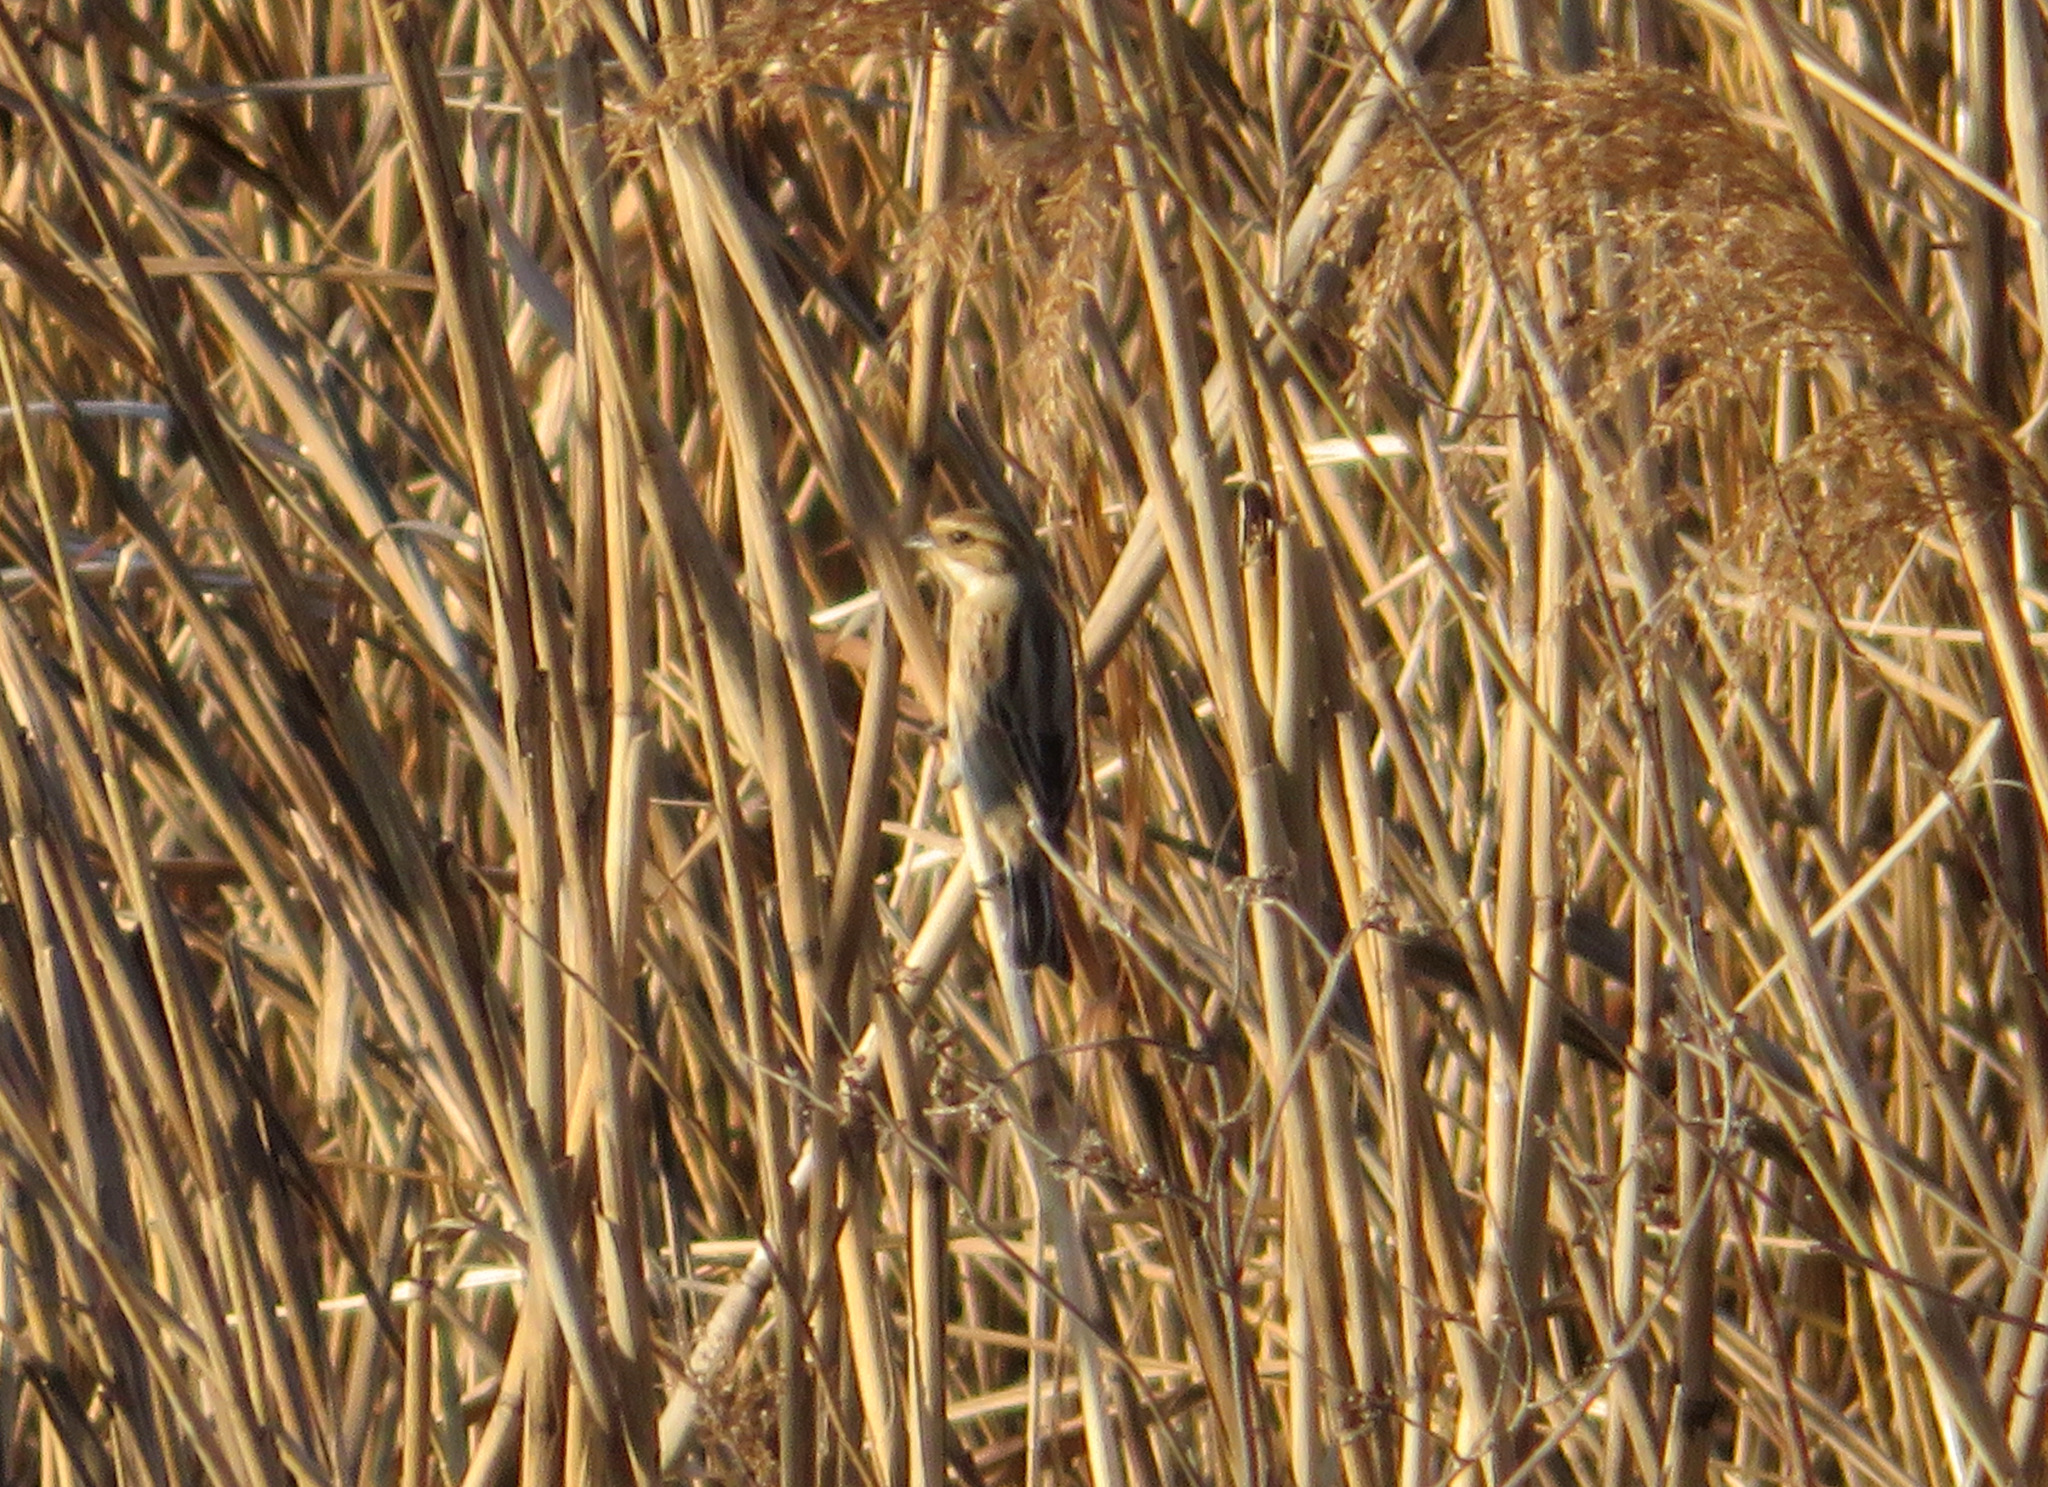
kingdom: Animalia
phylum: Chordata
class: Aves
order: Passeriformes
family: Emberizidae
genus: Emberiza
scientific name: Emberiza schoeniclus
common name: Reed bunting
